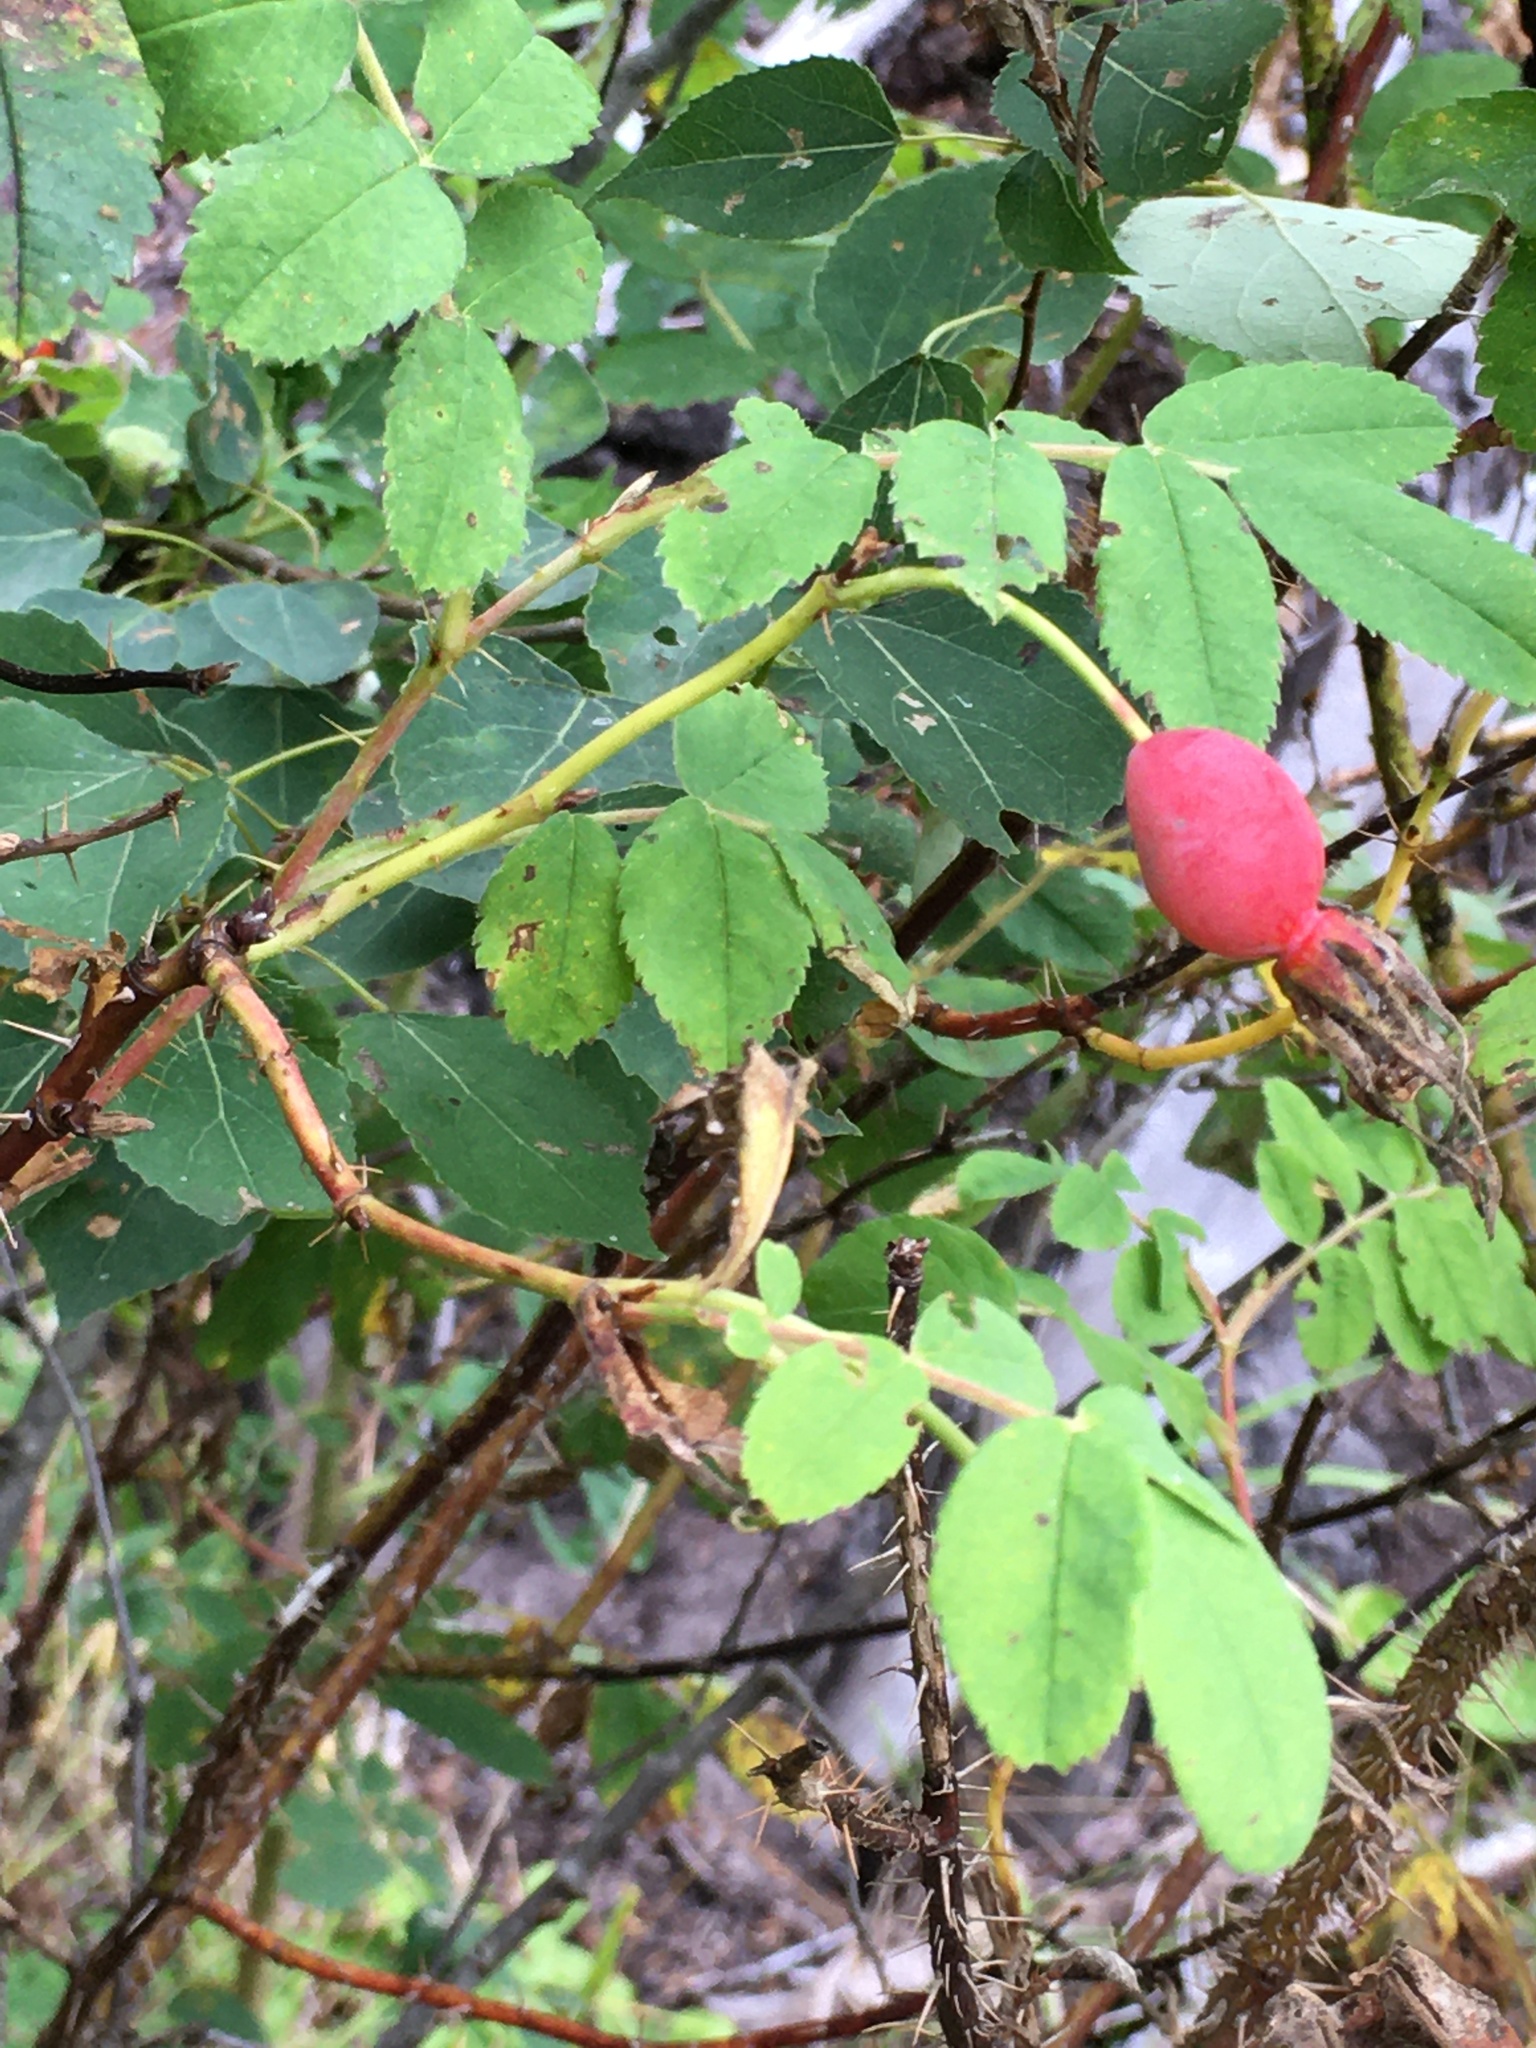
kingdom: Plantae
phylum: Tracheophyta
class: Magnoliopsida
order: Rosales
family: Rosaceae
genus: Rosa
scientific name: Rosa acicularis
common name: Prickly rose
